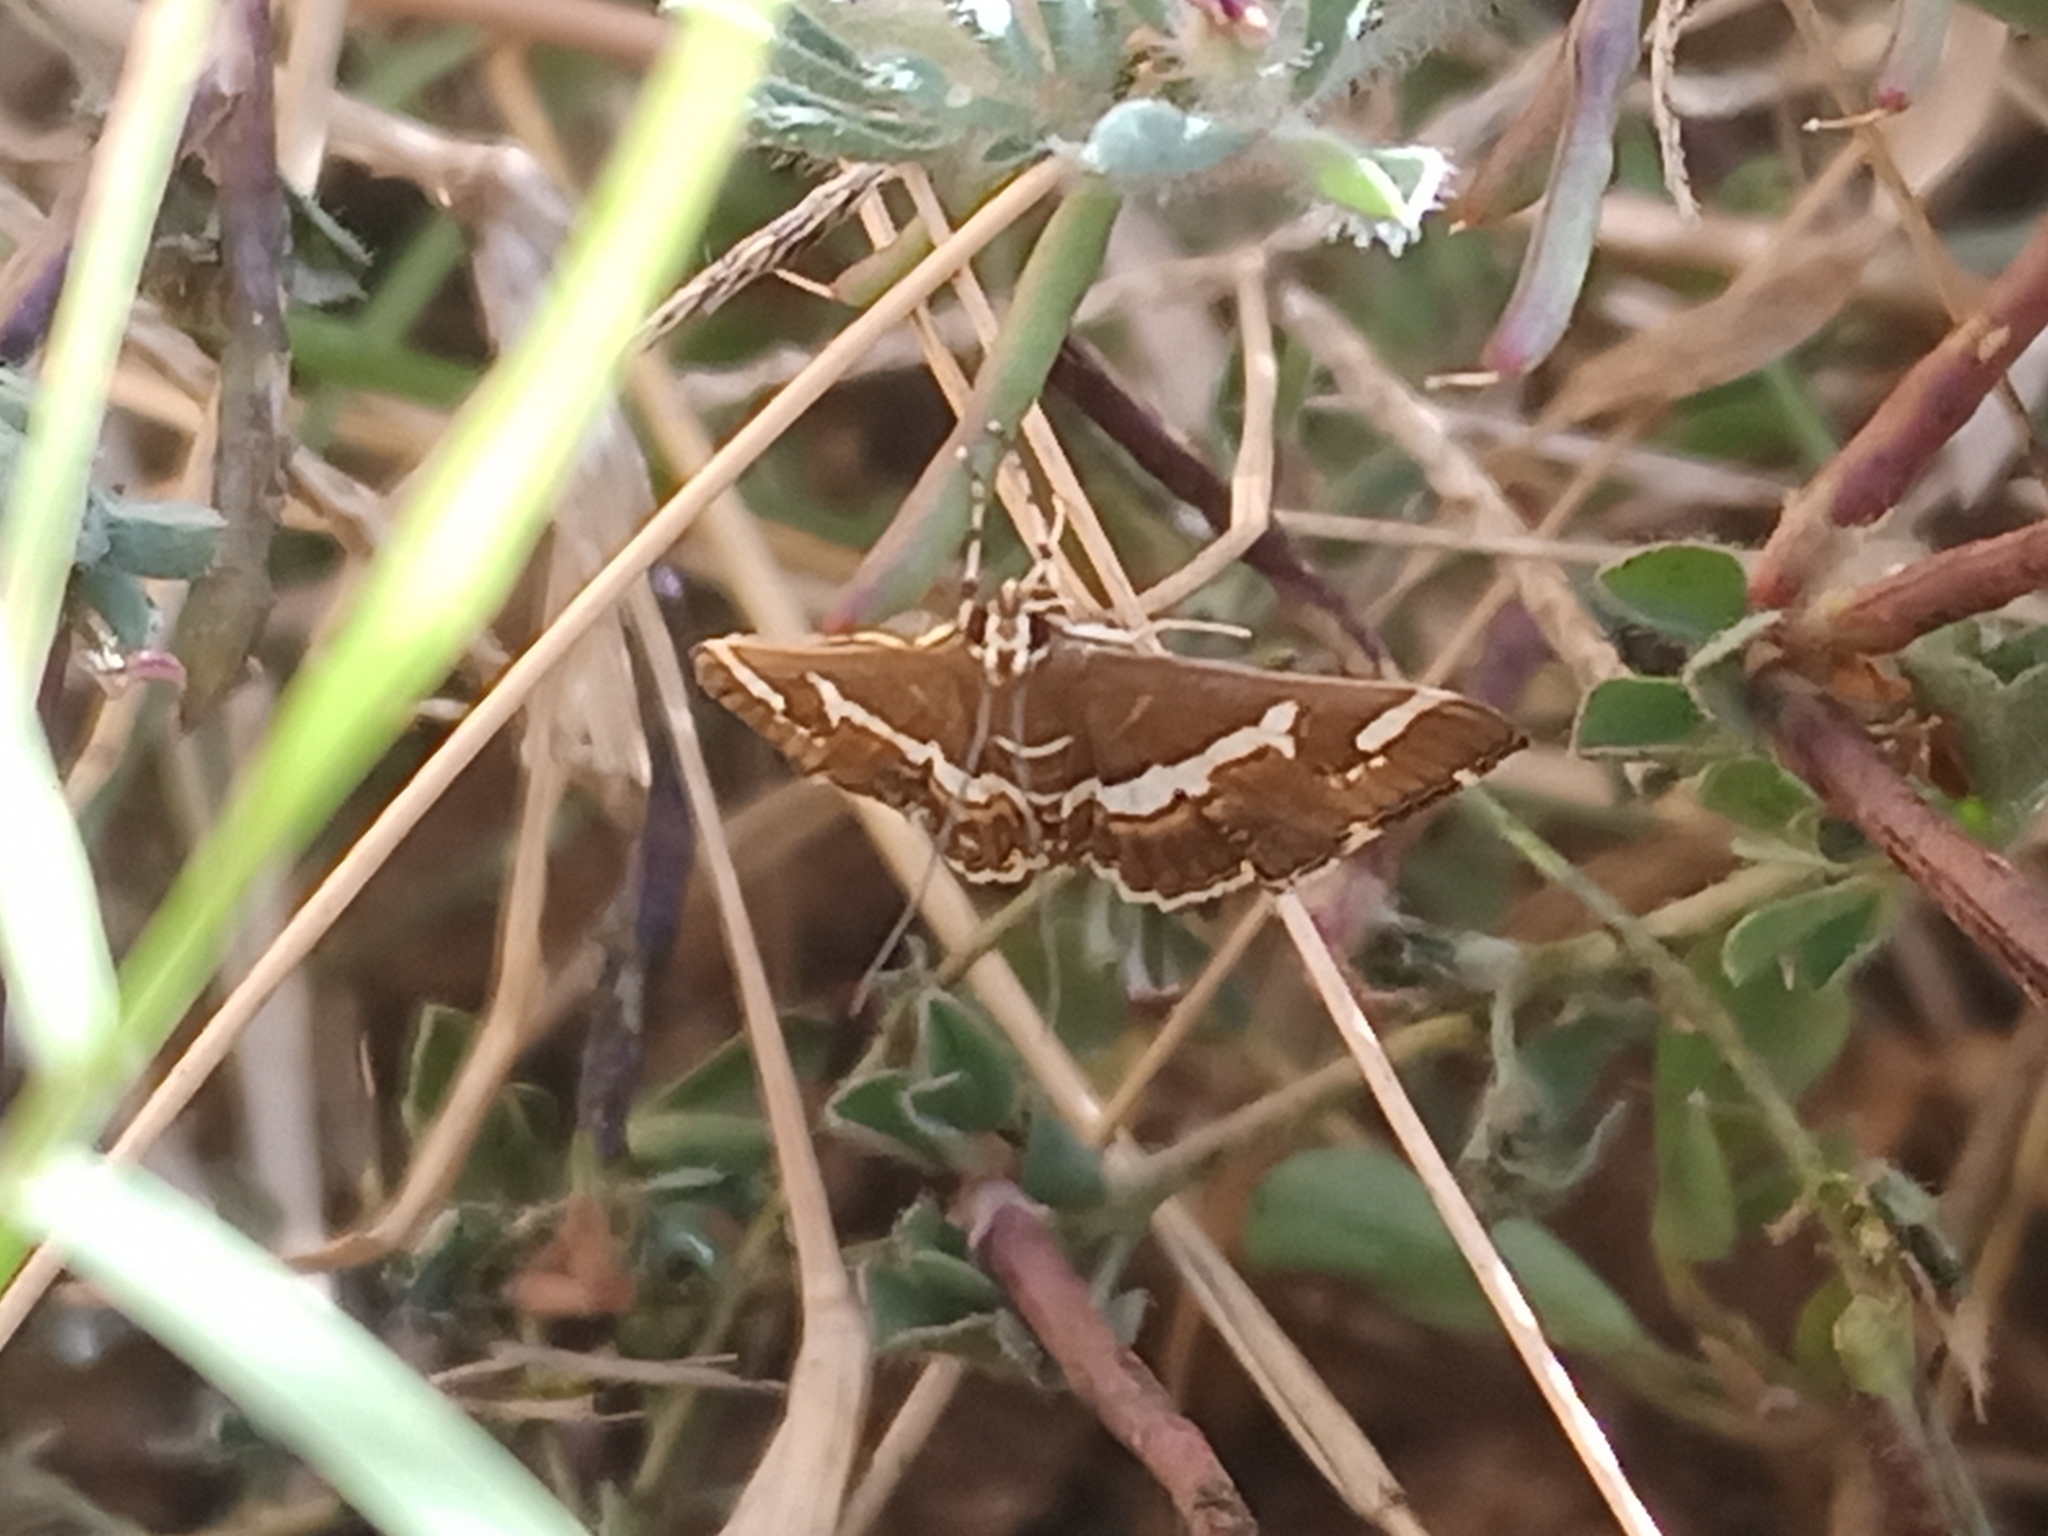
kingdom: Animalia
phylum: Arthropoda
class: Insecta
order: Lepidoptera
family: Crambidae
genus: Spoladea
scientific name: Spoladea recurvalis
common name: Beet webworm moth
